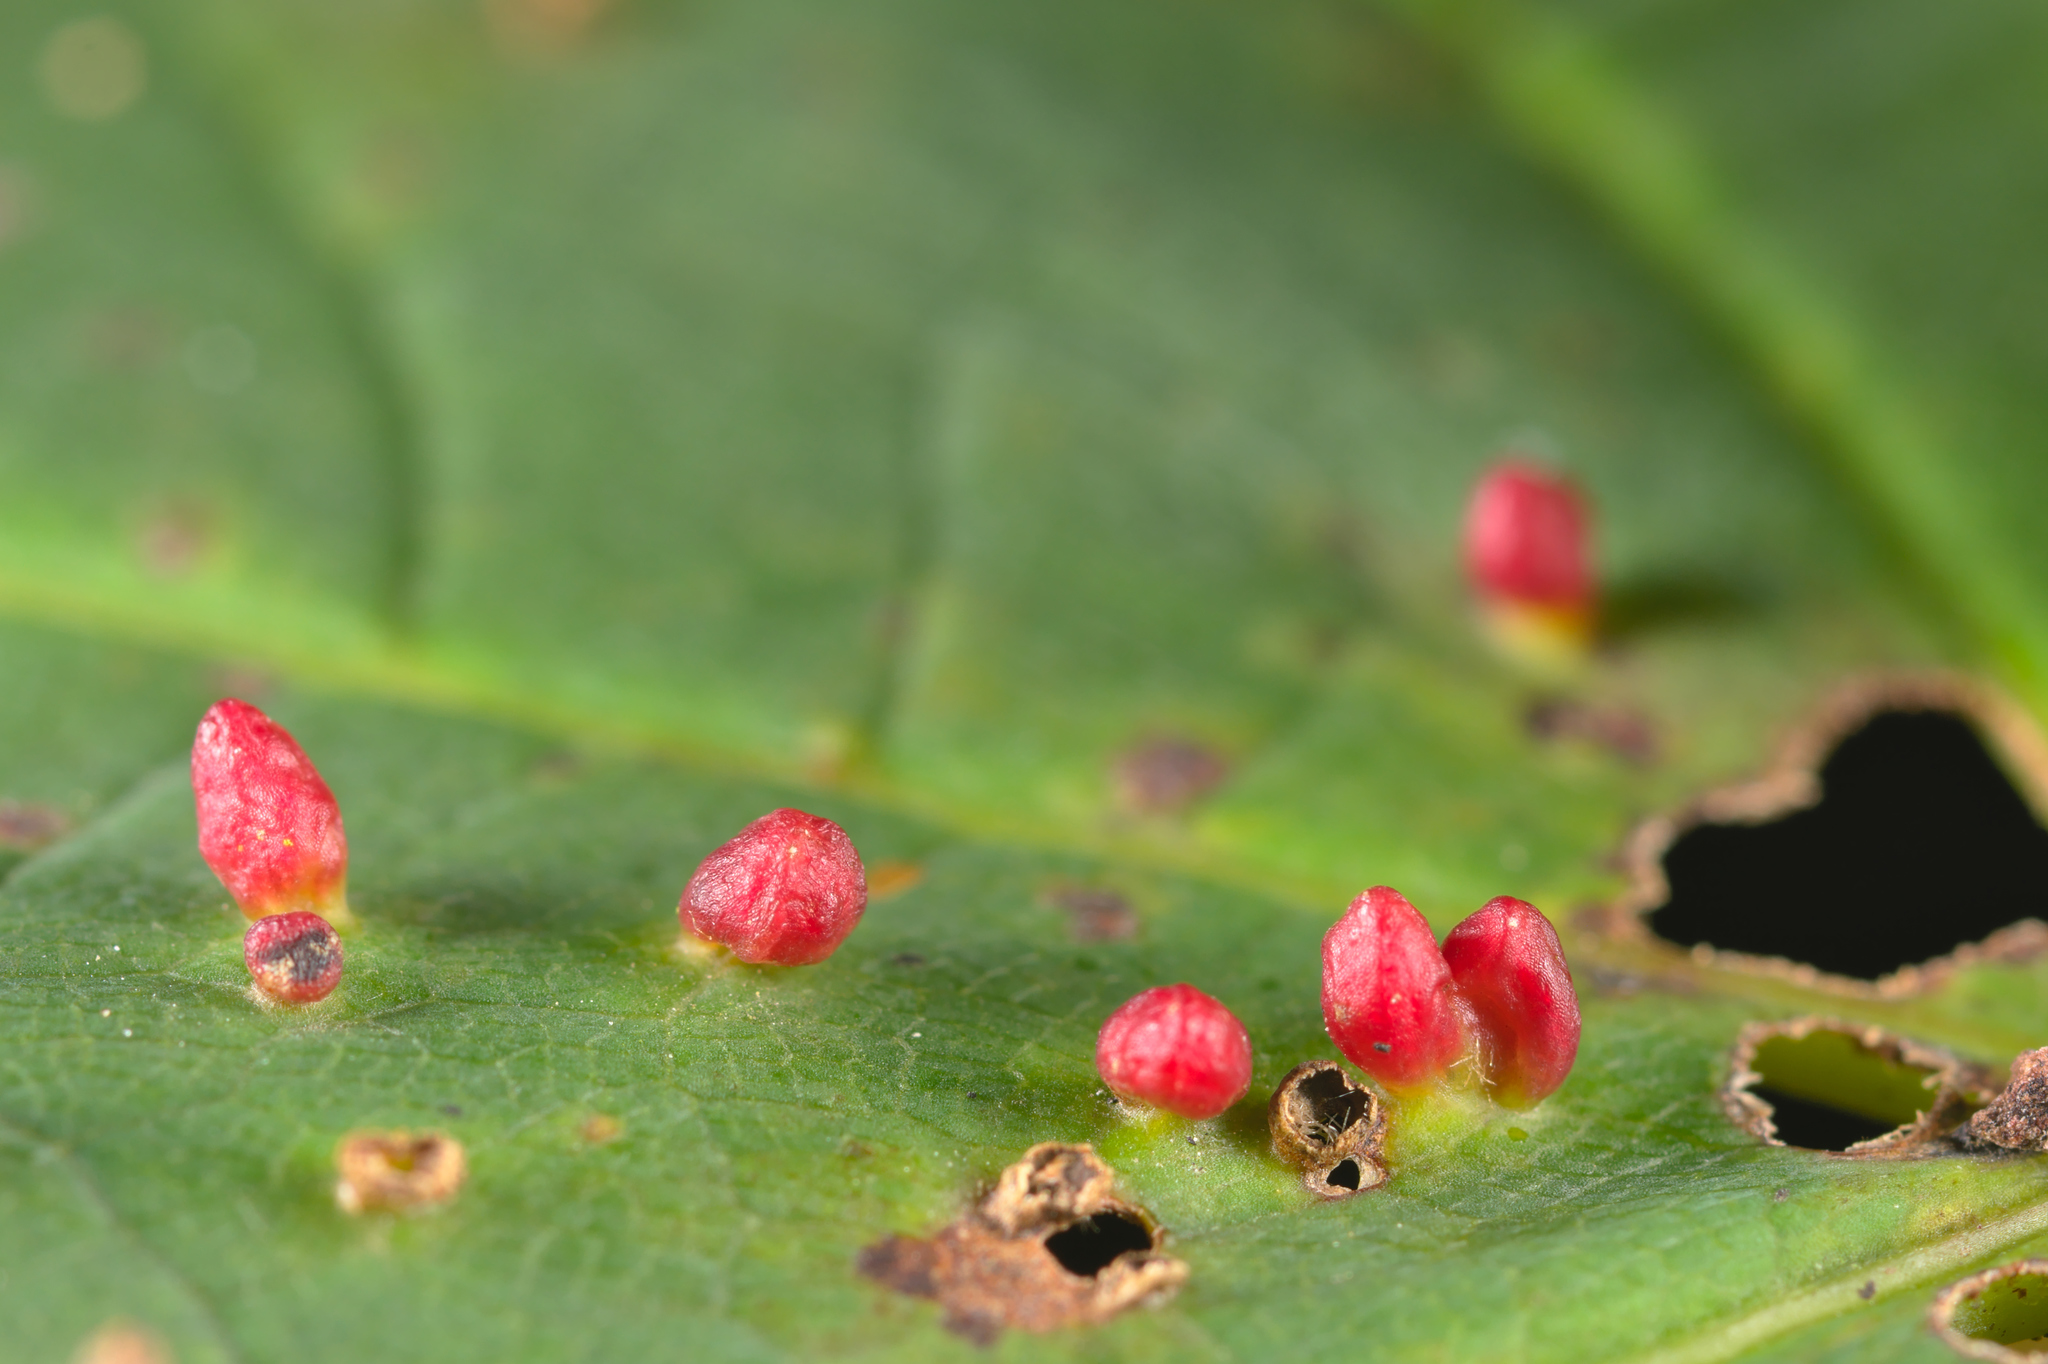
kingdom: Animalia
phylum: Arthropoda
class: Arachnida
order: Trombidiformes
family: Eriophyidae
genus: Aceria
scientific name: Aceria macrorhynchus
